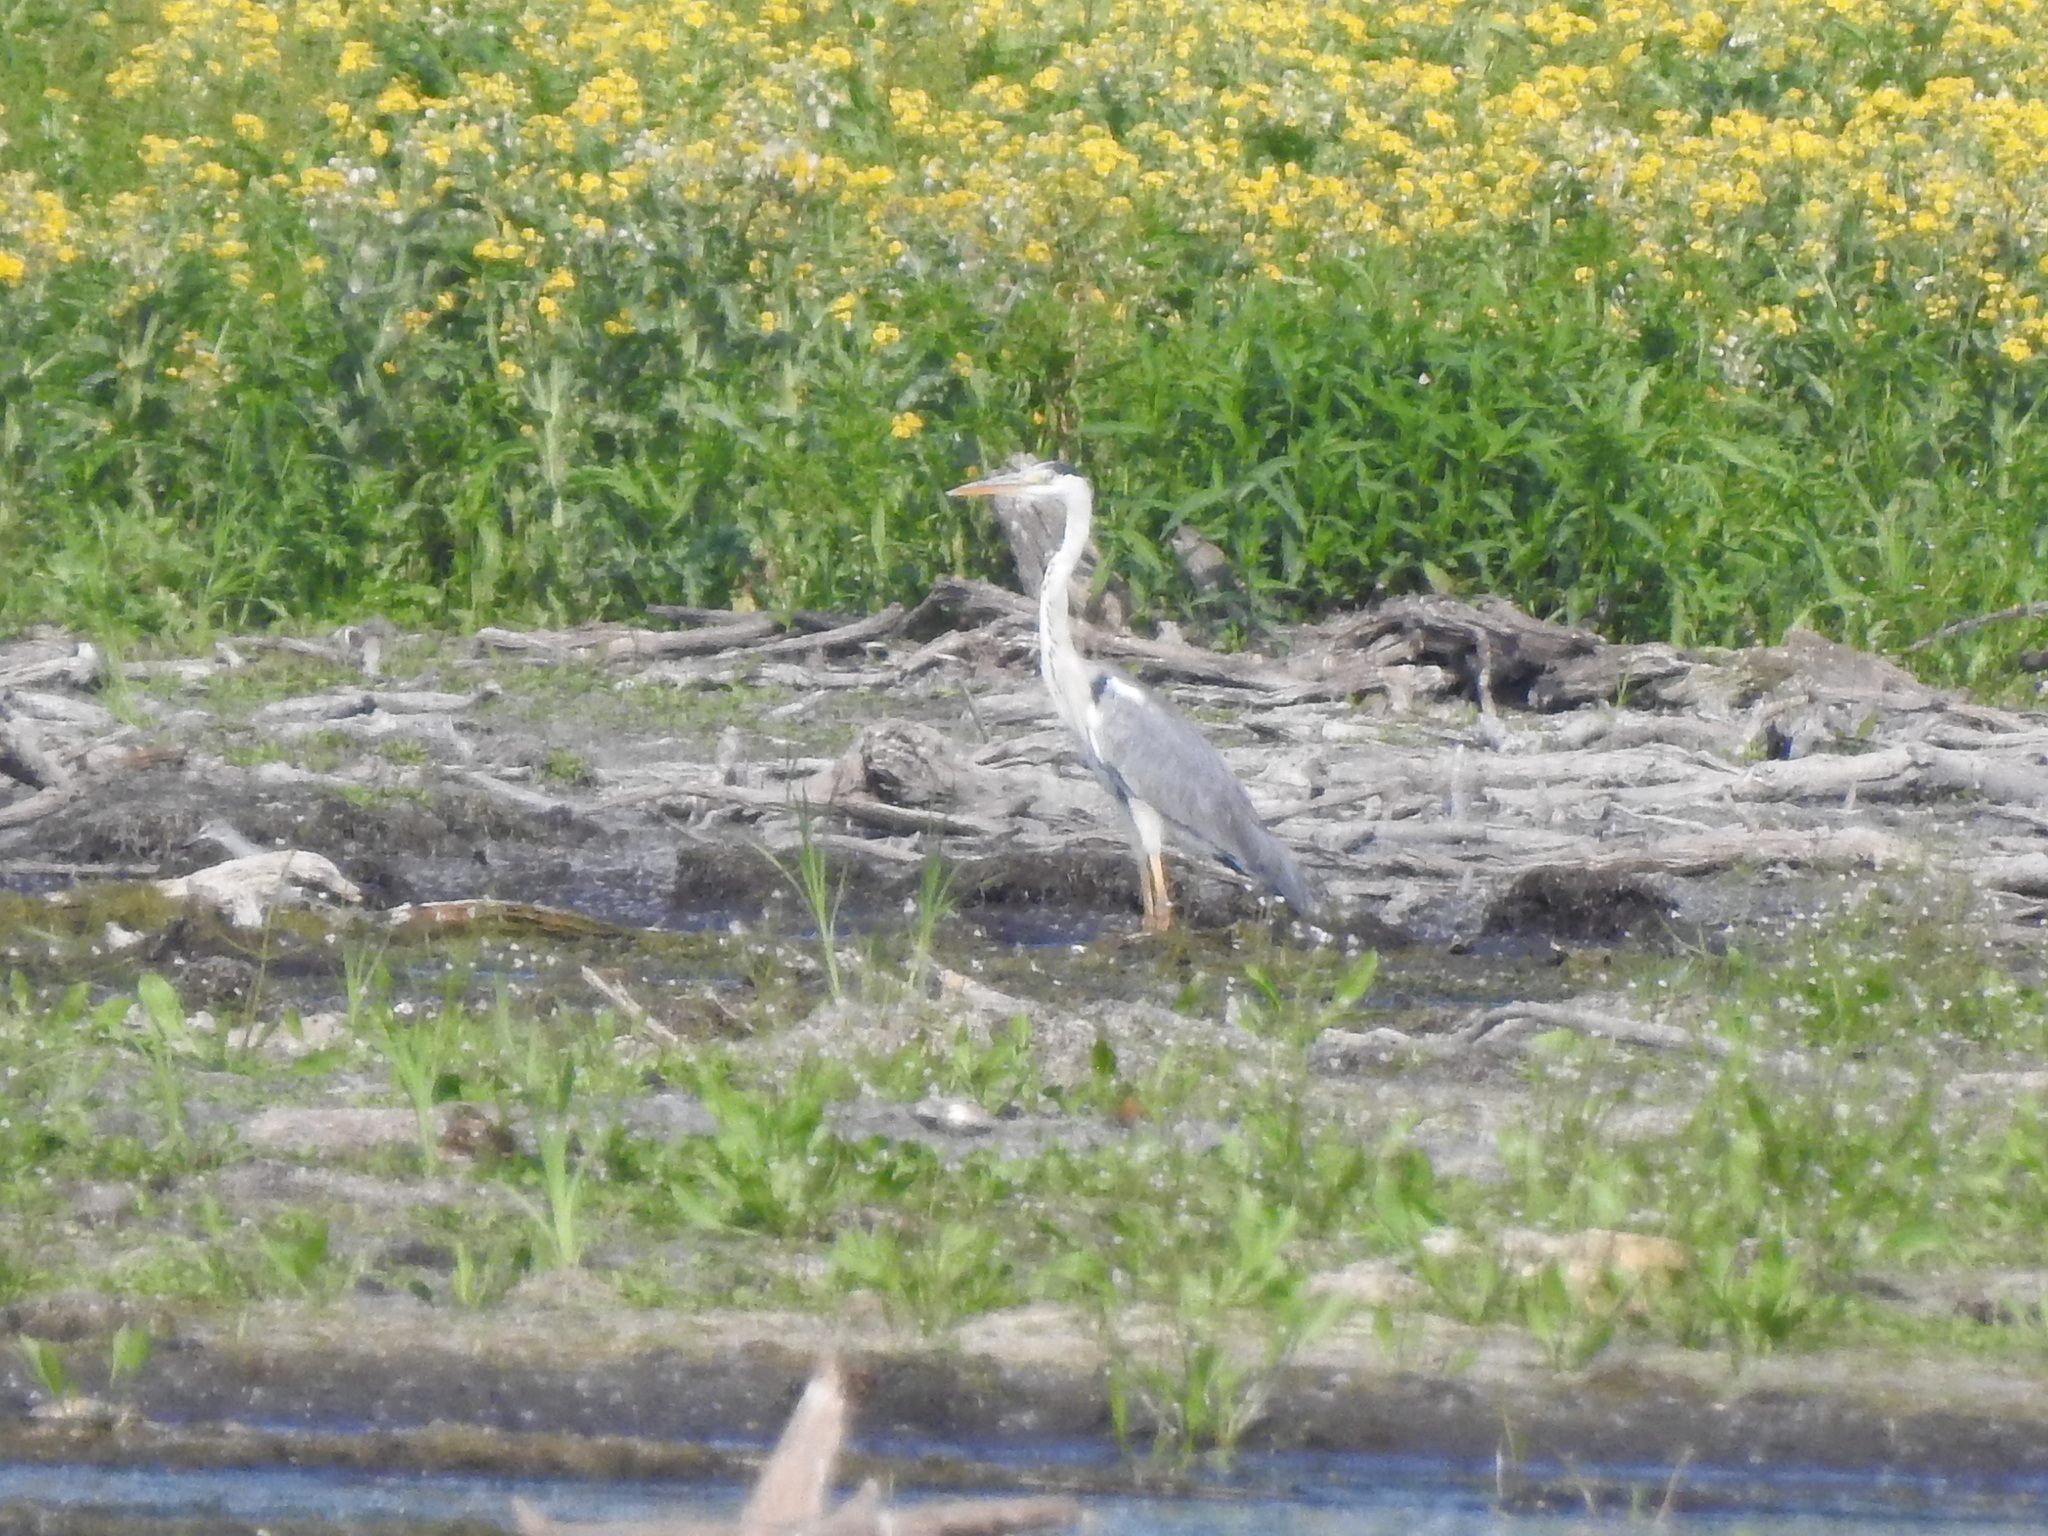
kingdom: Animalia
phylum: Chordata
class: Aves
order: Pelecaniformes
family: Ardeidae
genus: Ardea
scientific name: Ardea cinerea
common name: Grey heron
